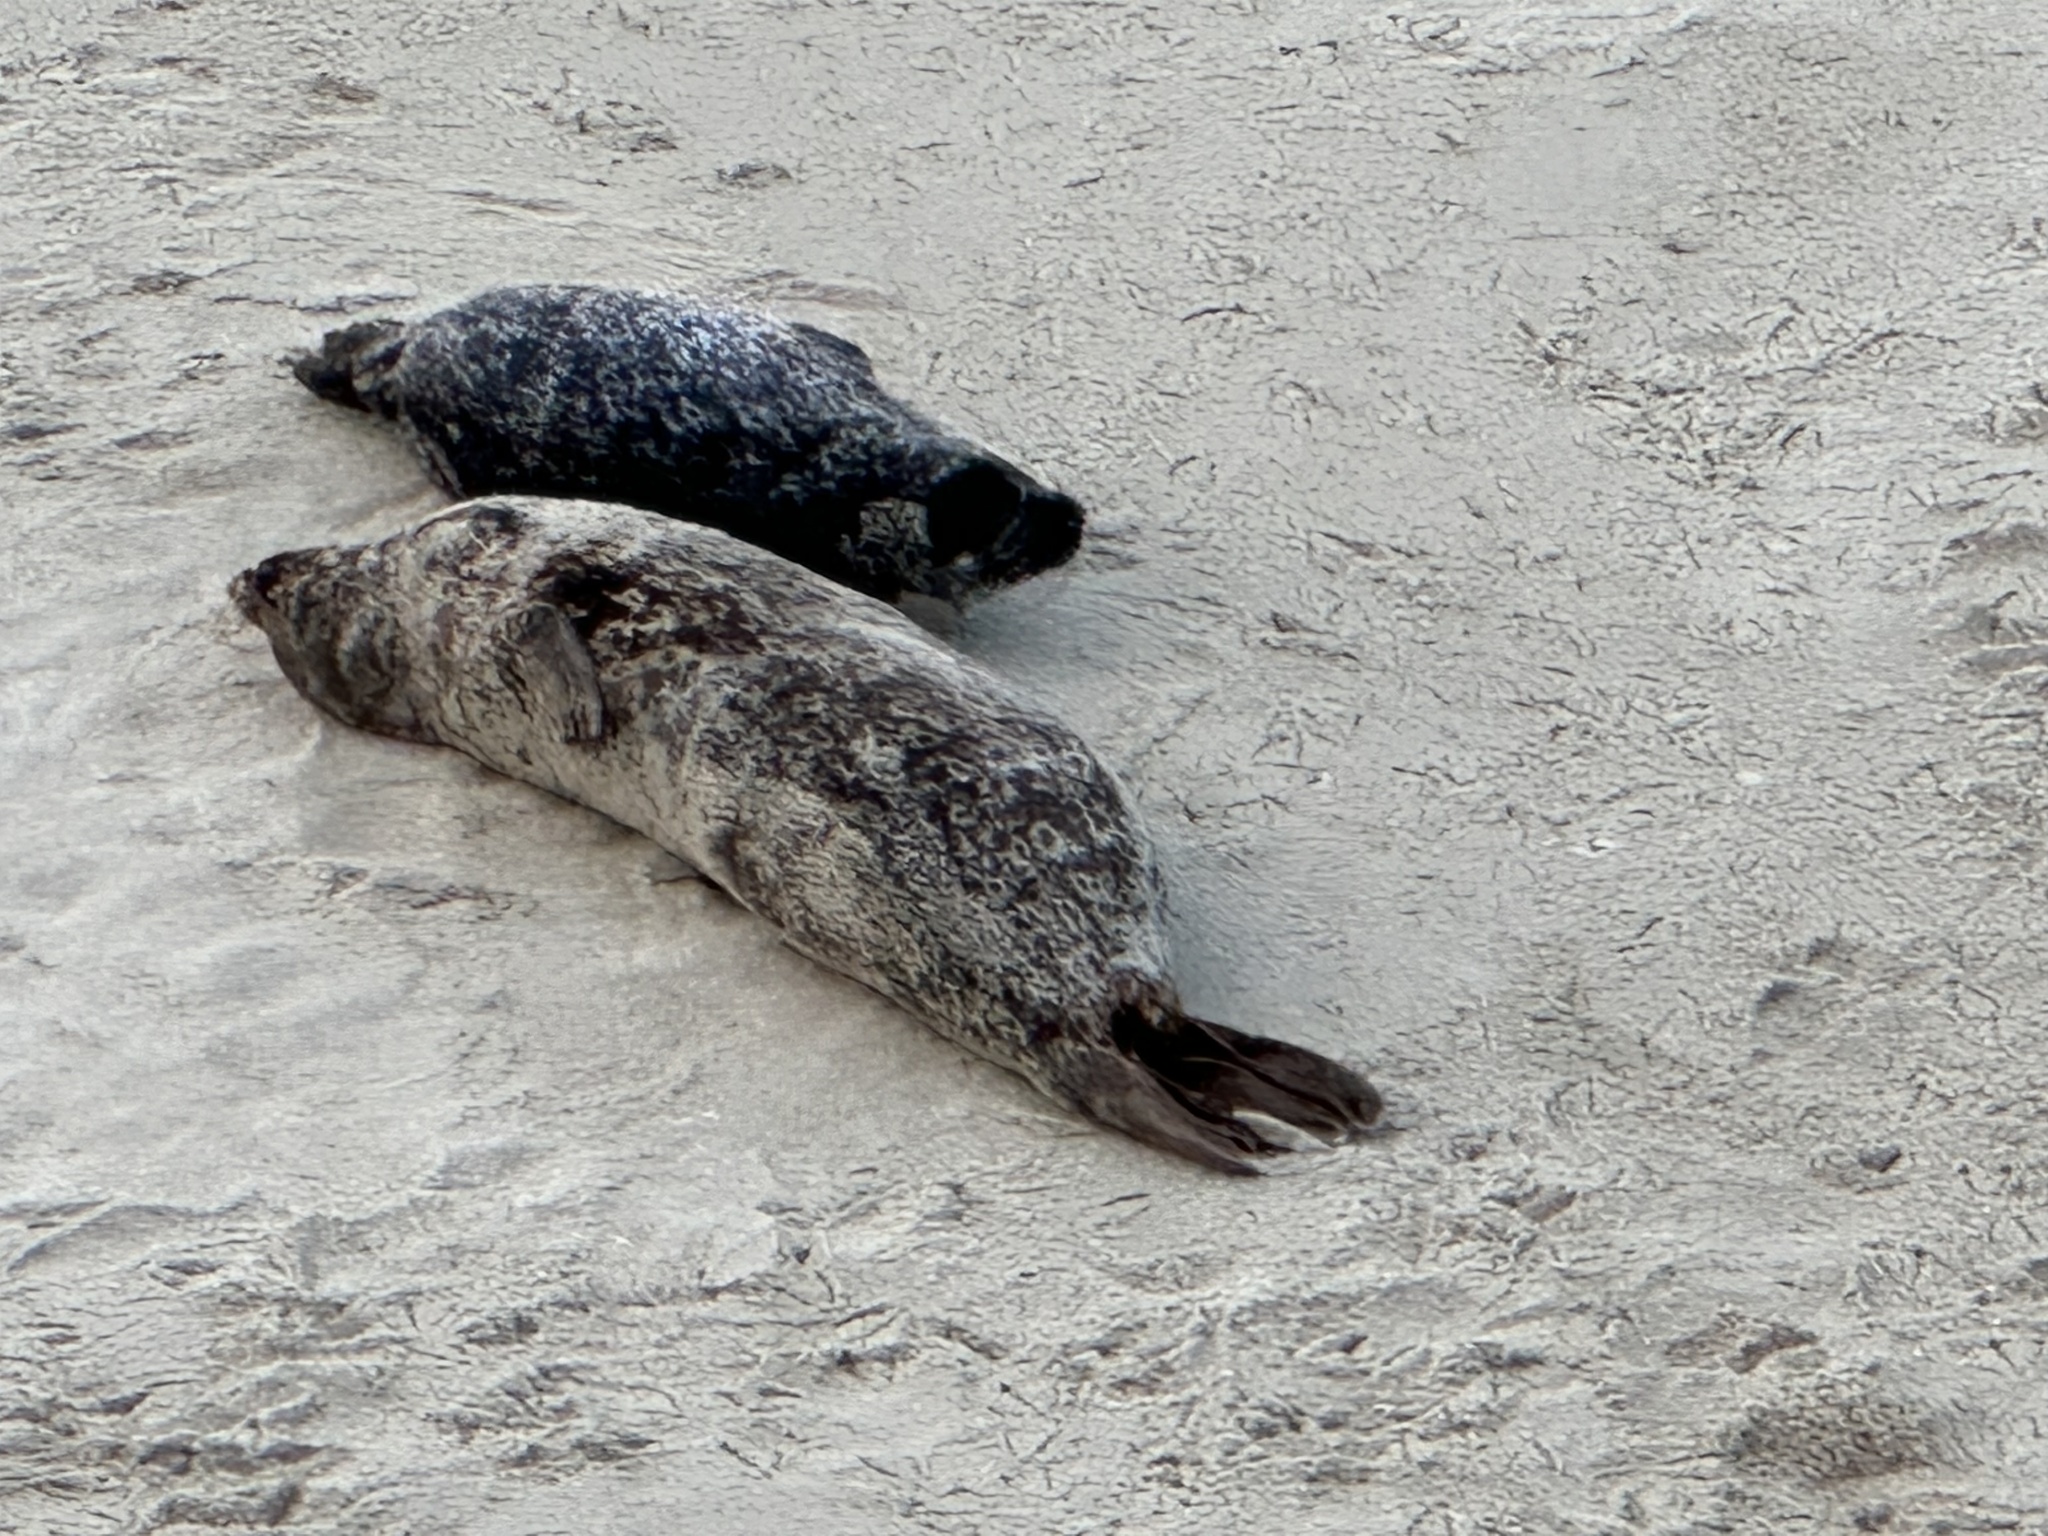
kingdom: Animalia
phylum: Chordata
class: Mammalia
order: Carnivora
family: Phocidae
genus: Phoca
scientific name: Phoca vitulina
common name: Harbor seal
